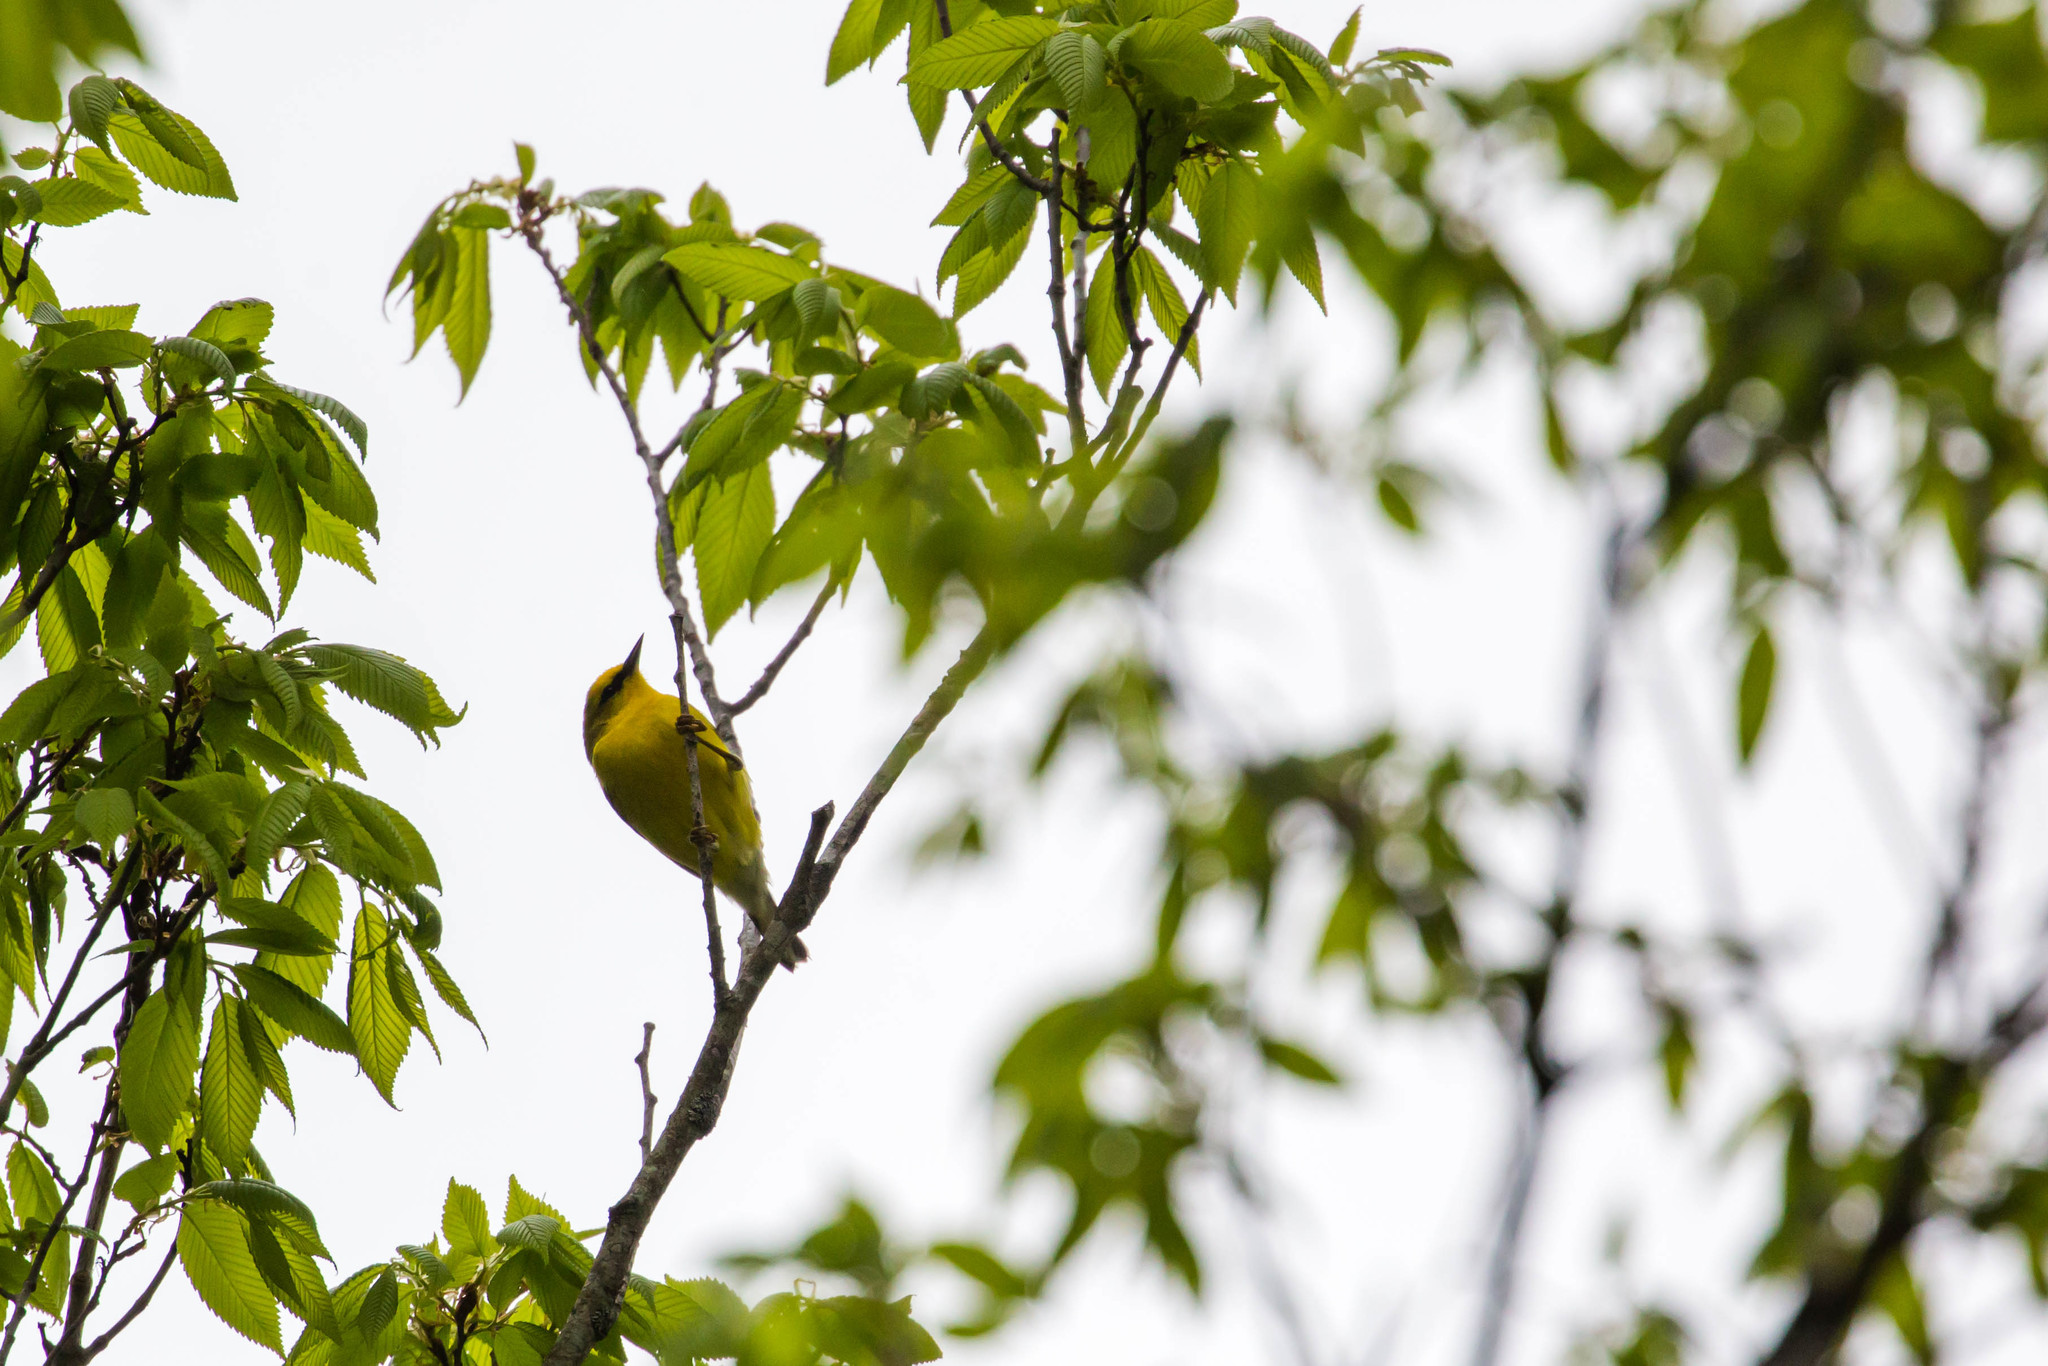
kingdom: Animalia
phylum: Chordata
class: Aves
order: Passeriformes
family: Parulidae
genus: Vermivora
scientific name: Vermivora cyanoptera
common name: Blue-winged warbler
